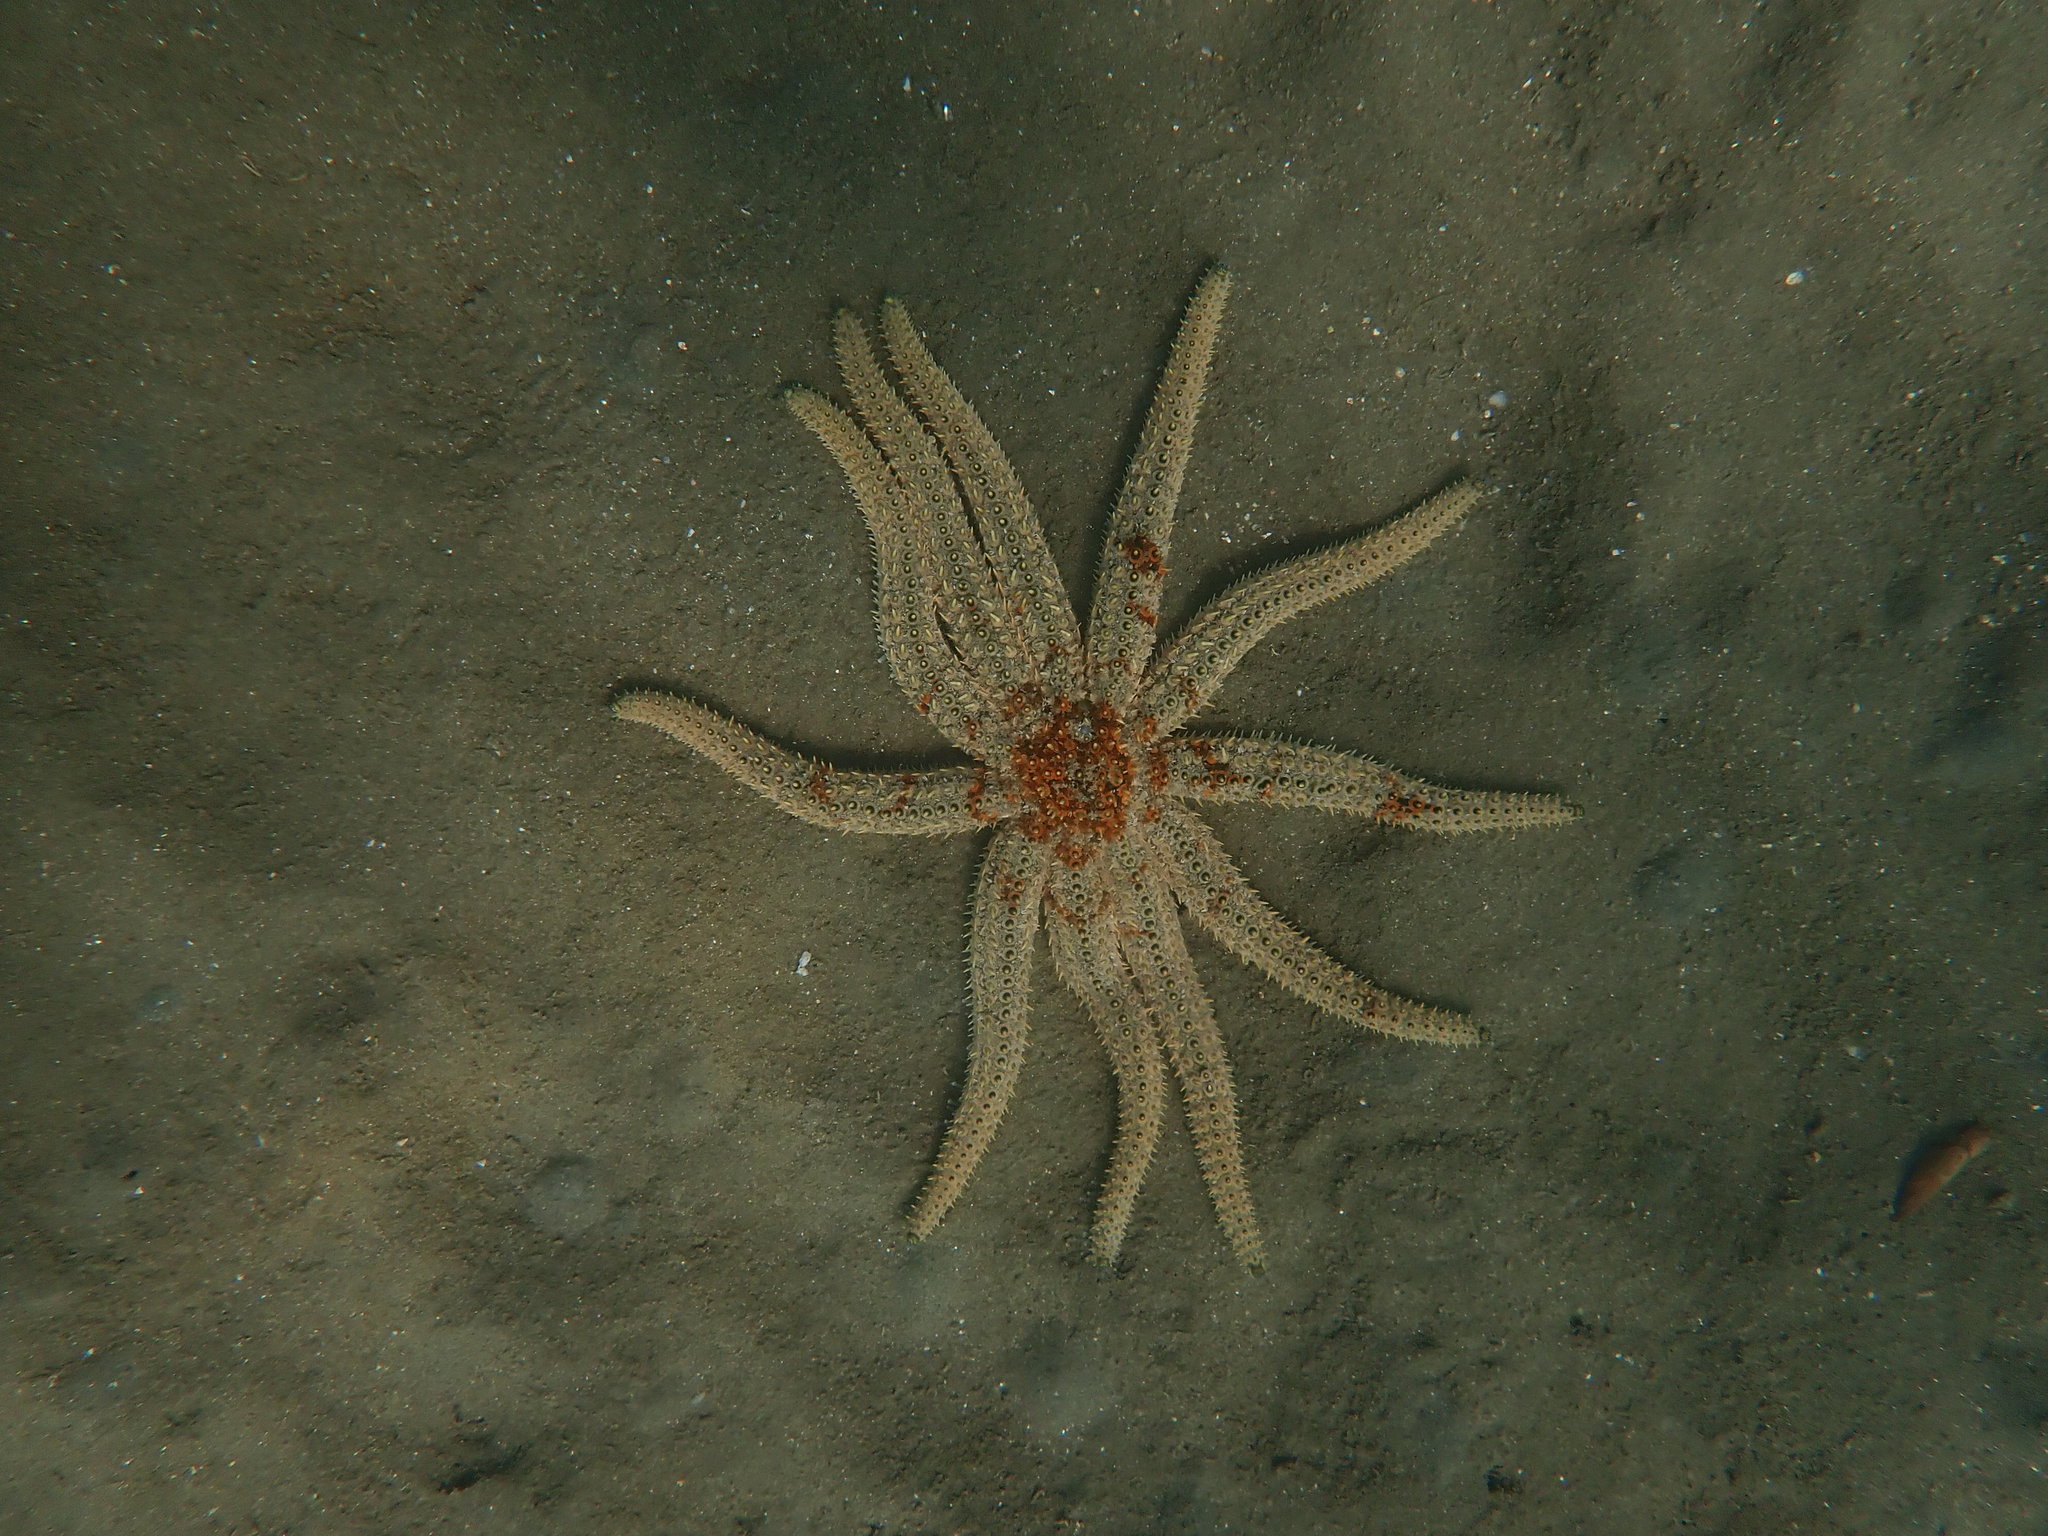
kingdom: Animalia
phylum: Echinodermata
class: Asteroidea
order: Forcipulatida
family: Asteriidae
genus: Coscinasterias
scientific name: Coscinasterias muricata
